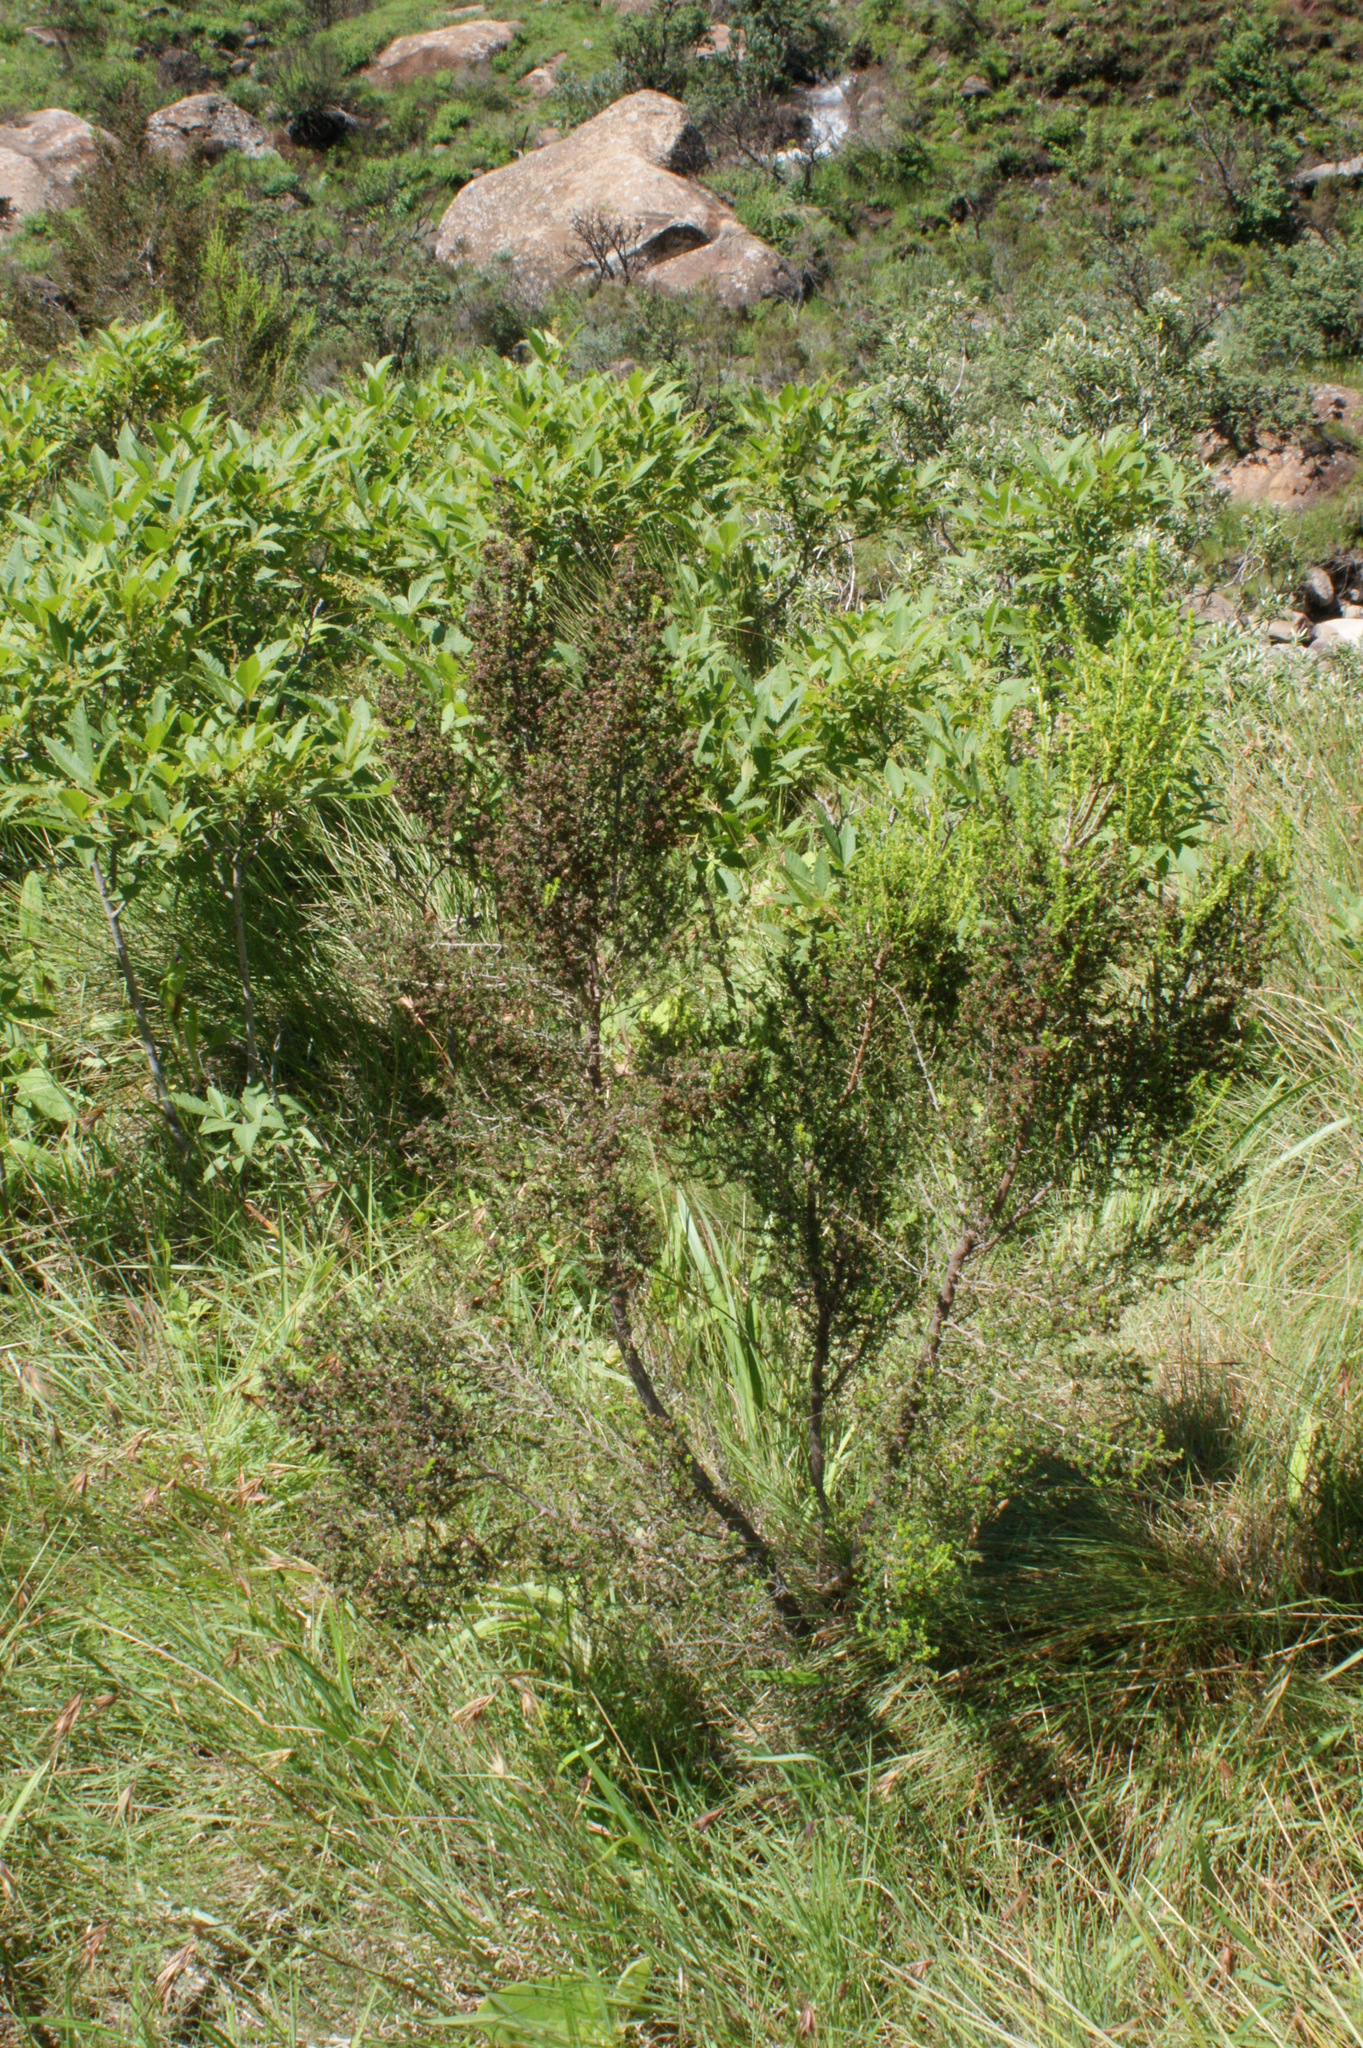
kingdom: Plantae
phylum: Tracheophyta
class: Magnoliopsida
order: Ericales
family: Ericaceae
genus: Erica
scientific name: Erica evansii
